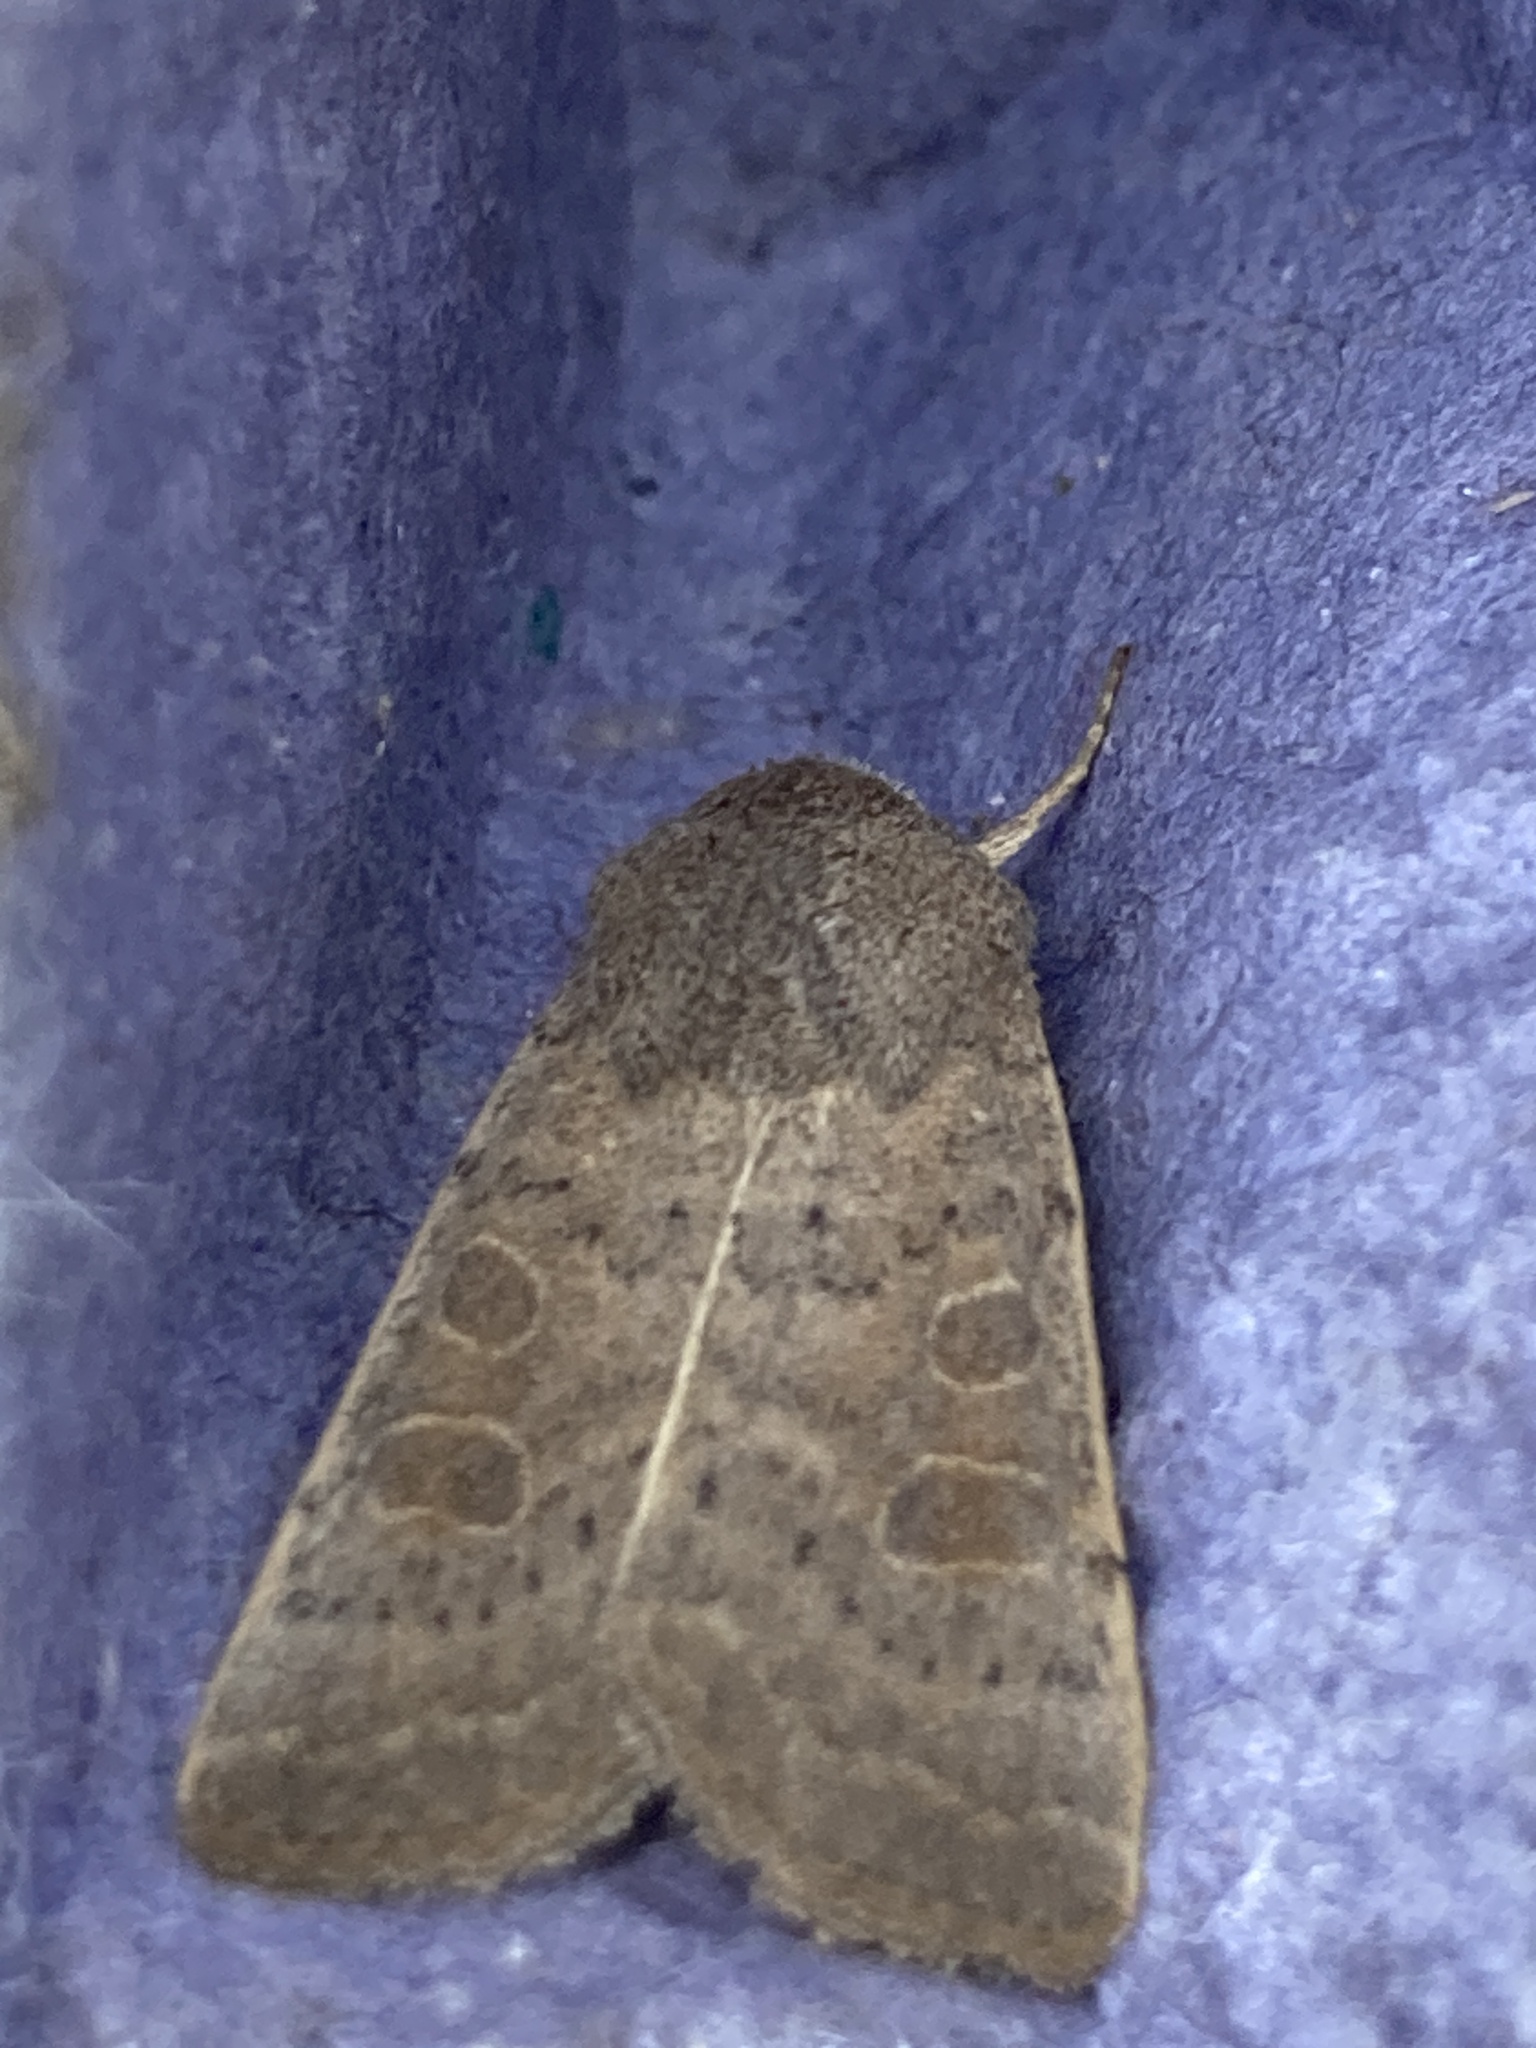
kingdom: Animalia
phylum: Arthropoda
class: Insecta
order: Lepidoptera
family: Noctuidae
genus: Hoplodrina
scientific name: Hoplodrina ambigua
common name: Vine's rustic
